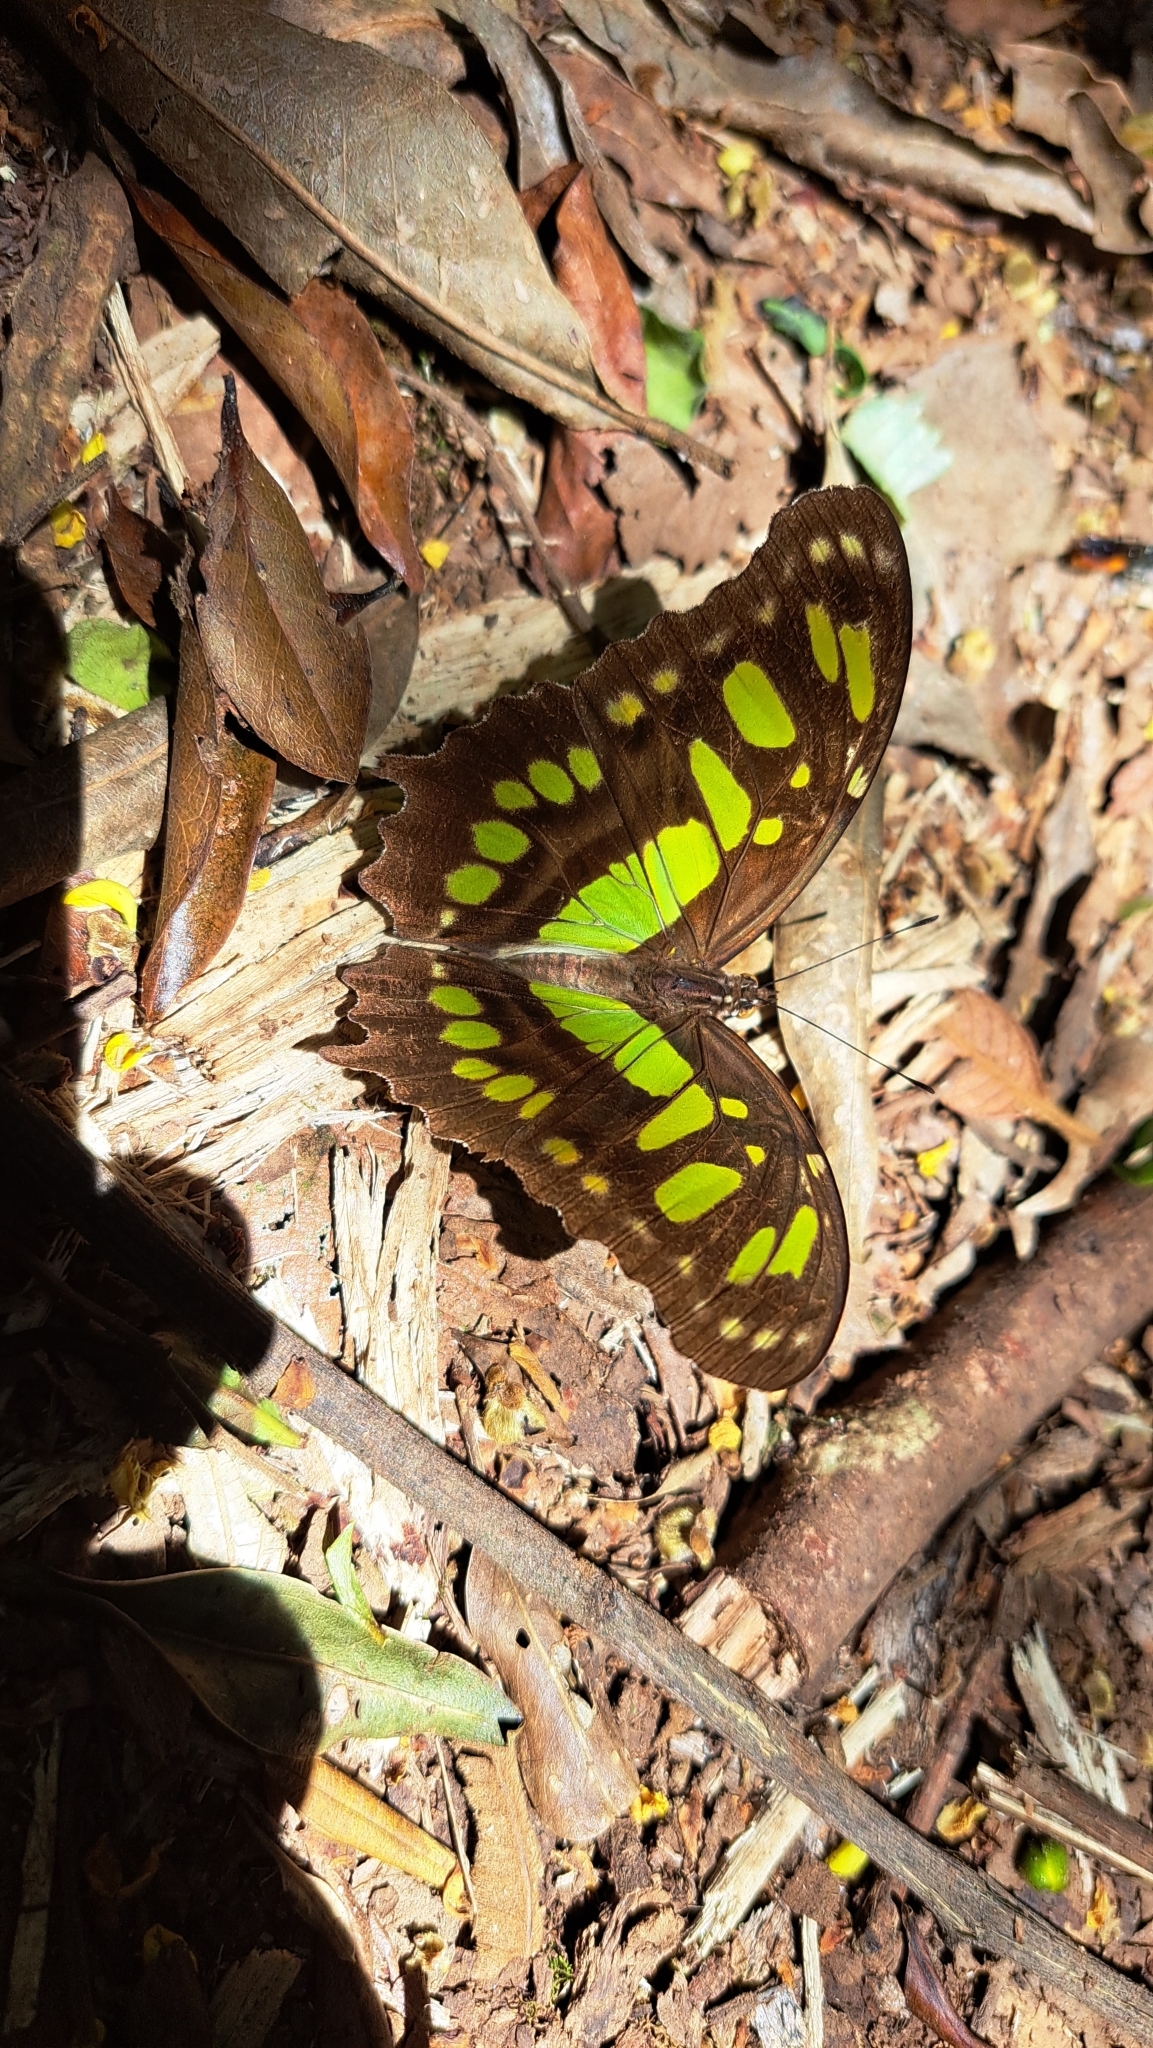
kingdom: Animalia
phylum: Arthropoda
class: Insecta
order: Lepidoptera
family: Nymphalidae
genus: Siproeta
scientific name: Siproeta stelenes
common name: Malachite
